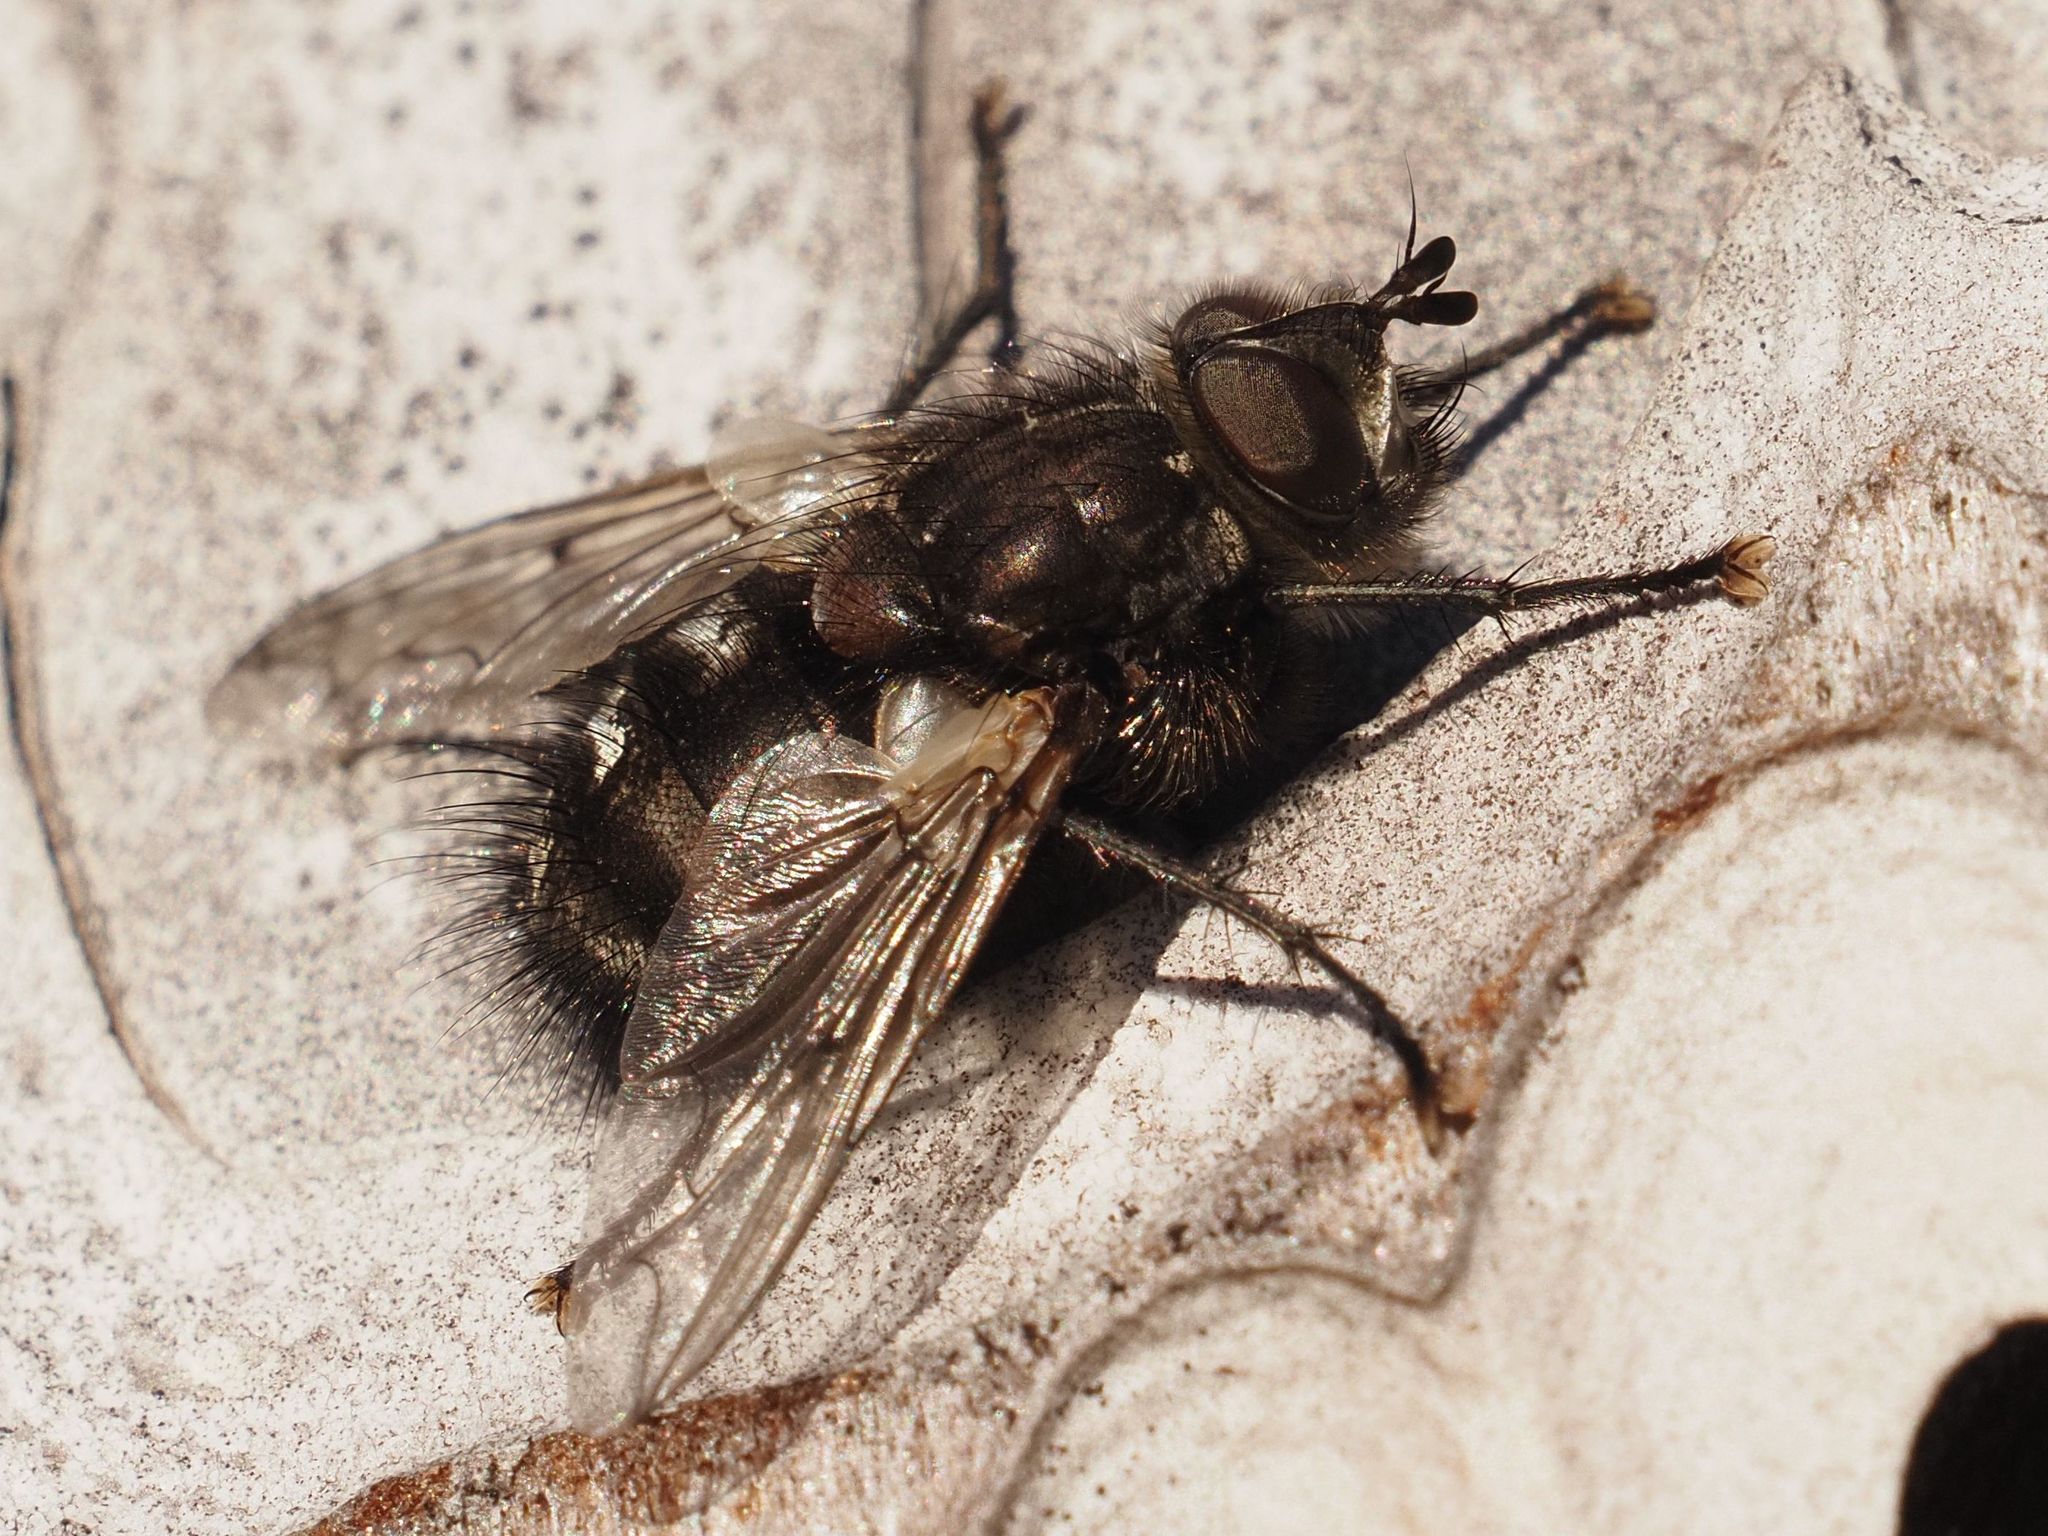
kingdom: Animalia
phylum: Arthropoda
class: Insecta
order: Diptera
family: Tachinidae
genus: Panzeria
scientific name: Panzeria puparum
